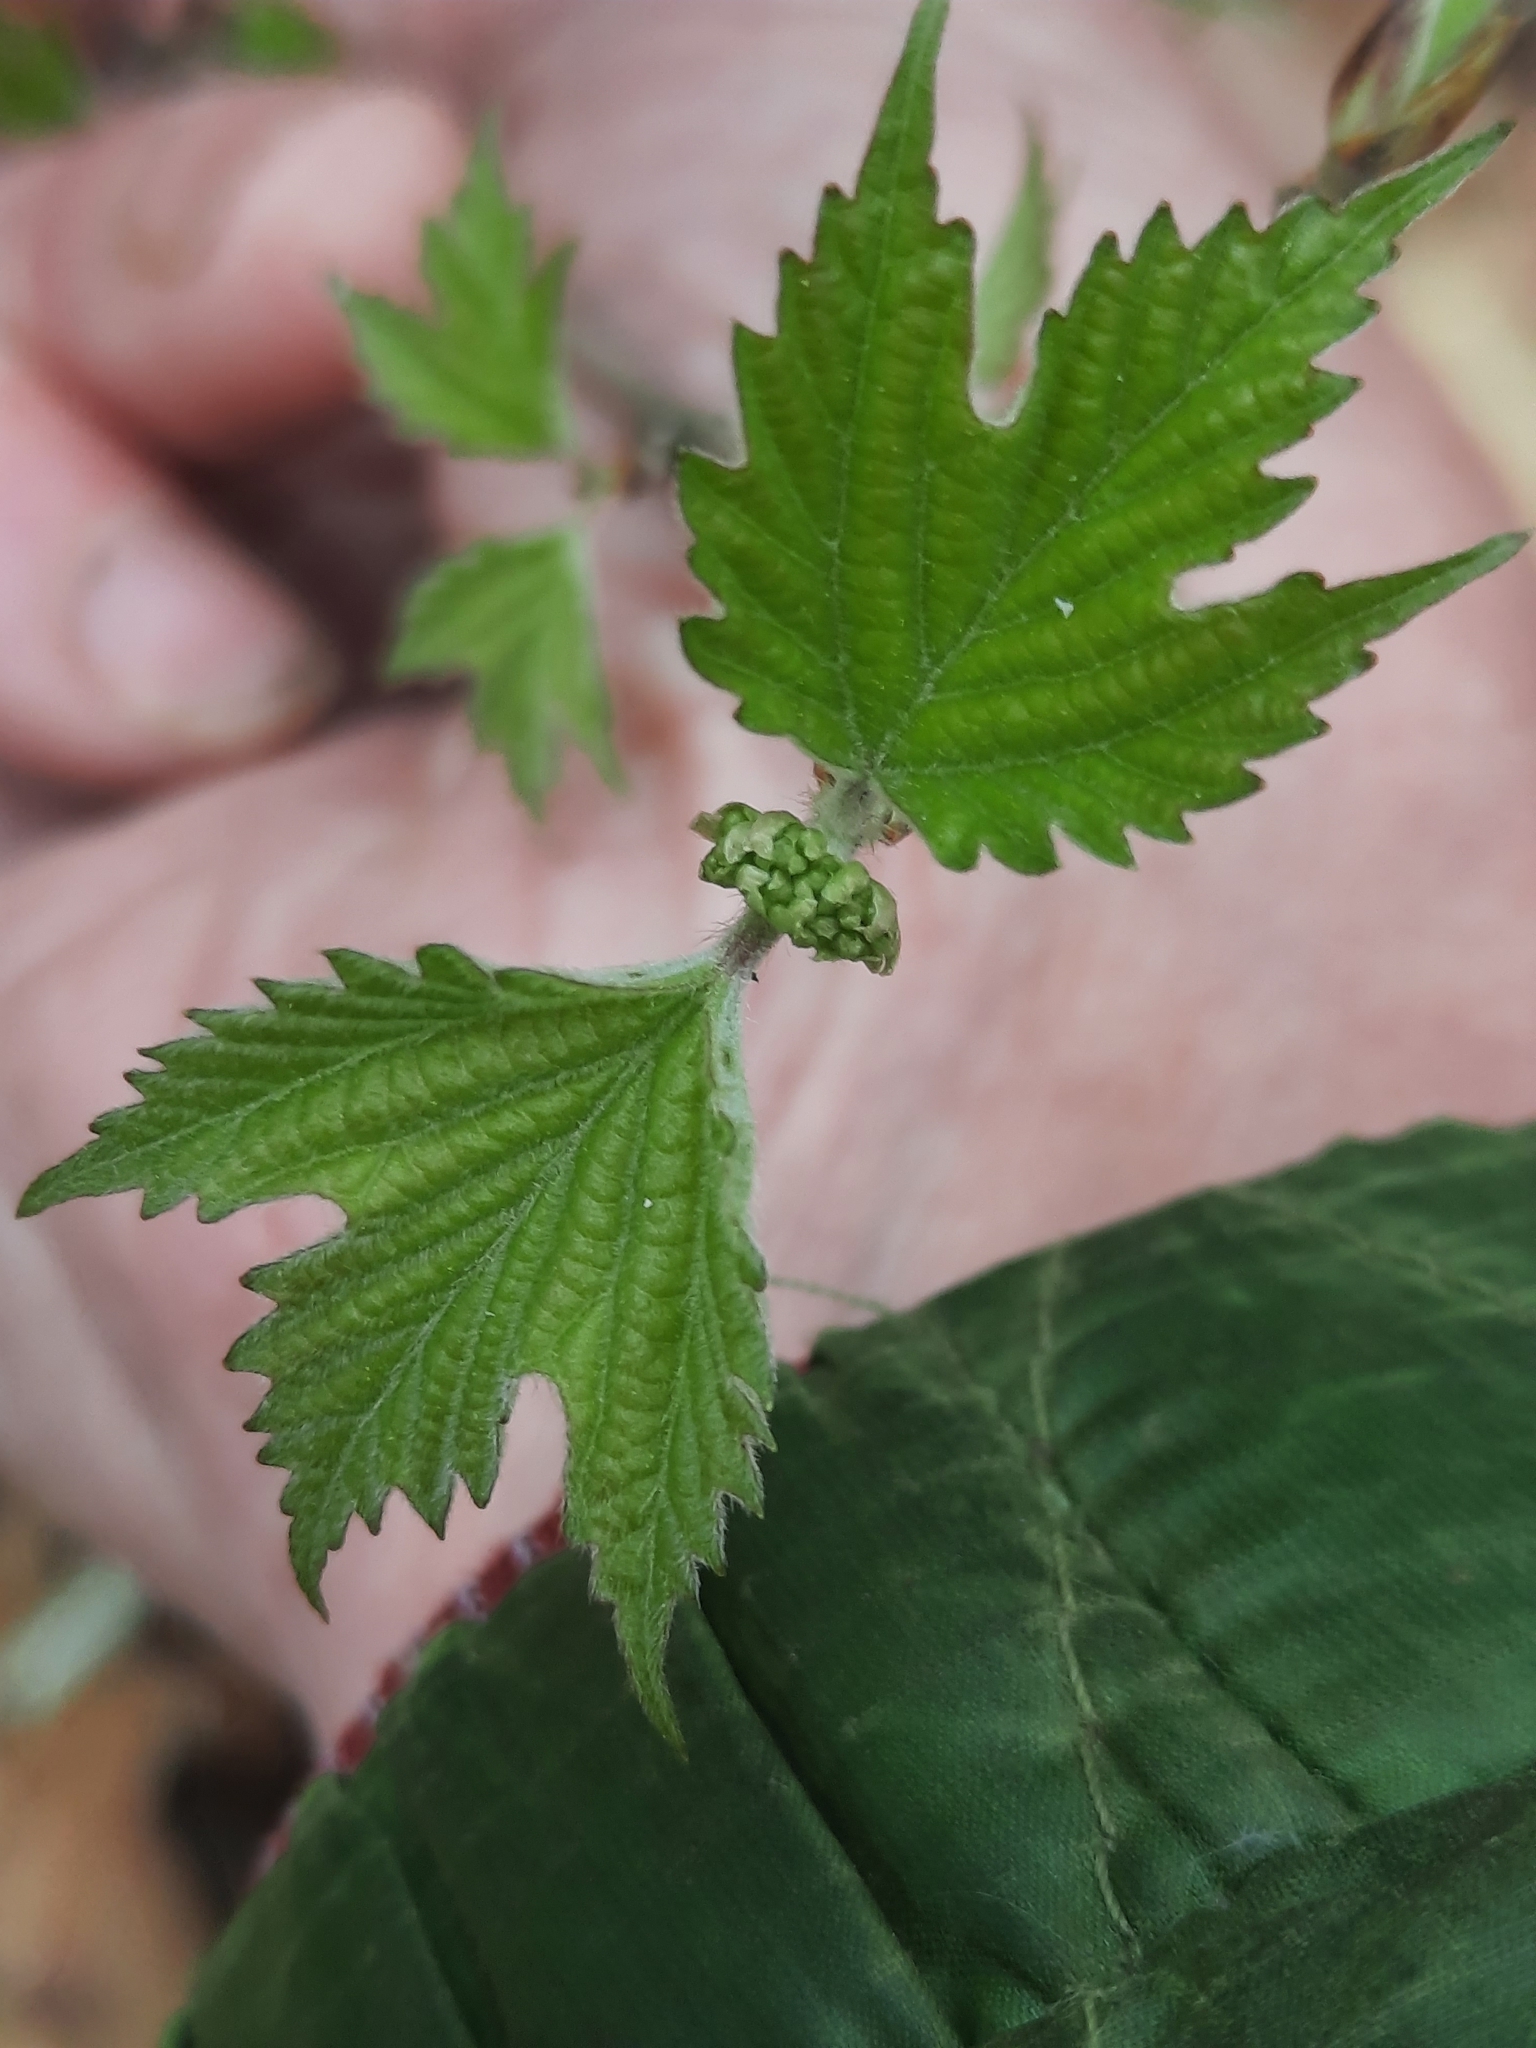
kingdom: Plantae
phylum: Tracheophyta
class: Magnoliopsida
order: Dipsacales
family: Viburnaceae
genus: Viburnum
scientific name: Viburnum acerifolium
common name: Dockmackie
